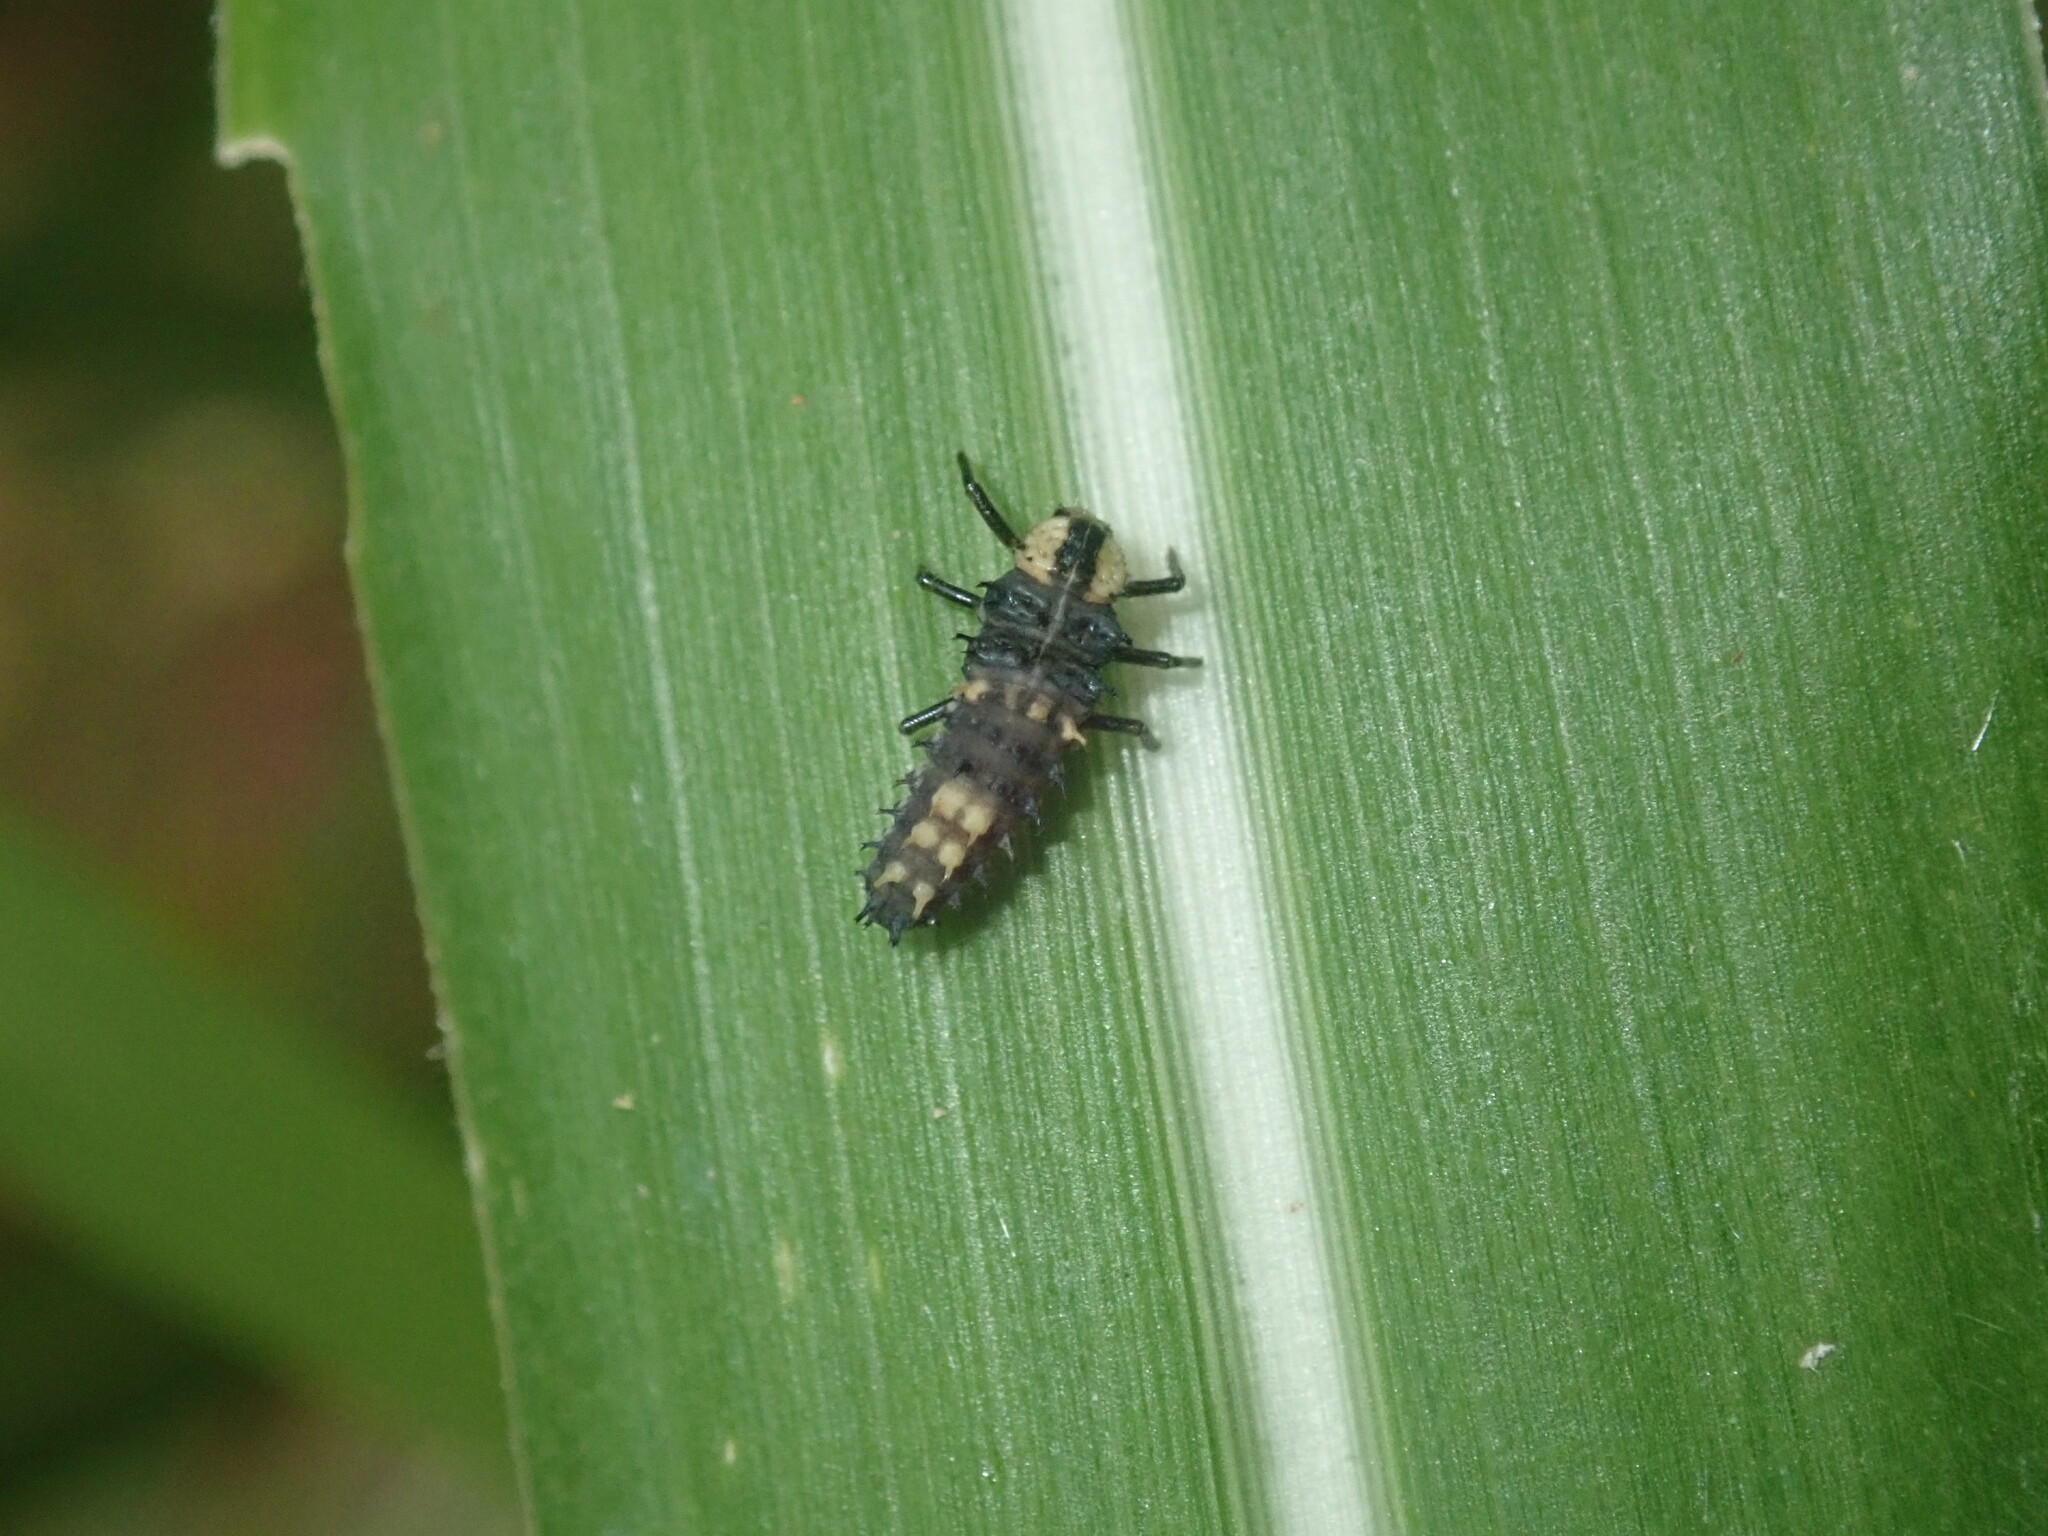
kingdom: Animalia
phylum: Arthropoda
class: Insecta
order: Coleoptera
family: Coccinellidae
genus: Harmonia
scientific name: Harmonia
